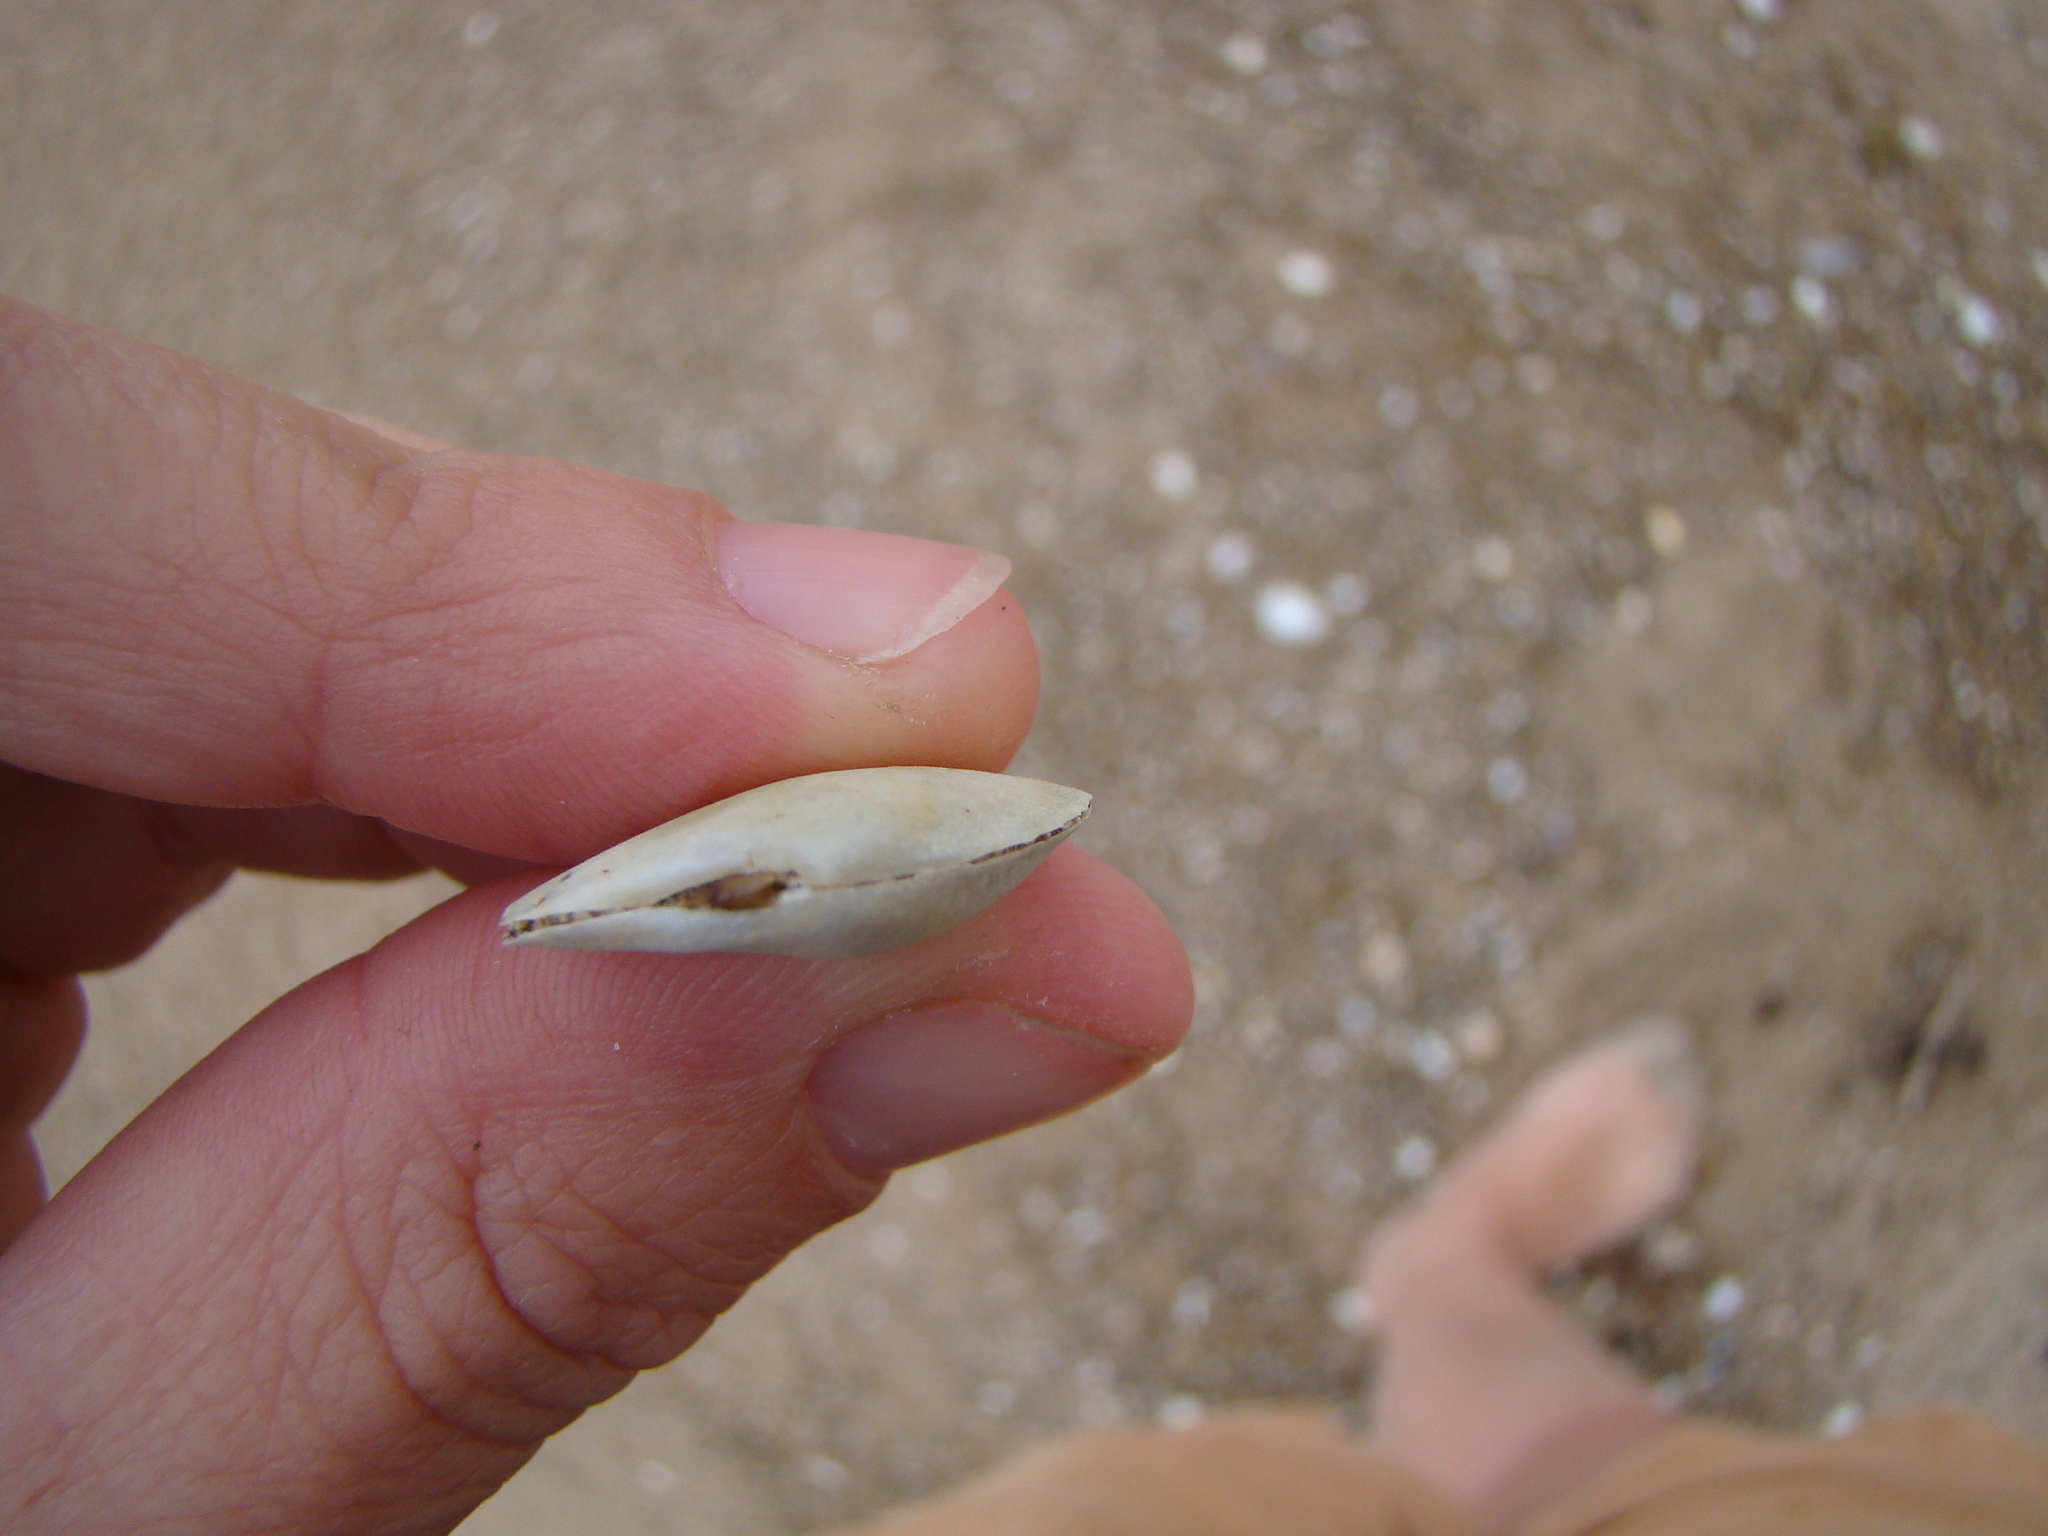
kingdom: Animalia
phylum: Mollusca
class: Bivalvia
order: Cardiida
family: Tellinidae
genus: Macomona
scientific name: Macomona liliana
